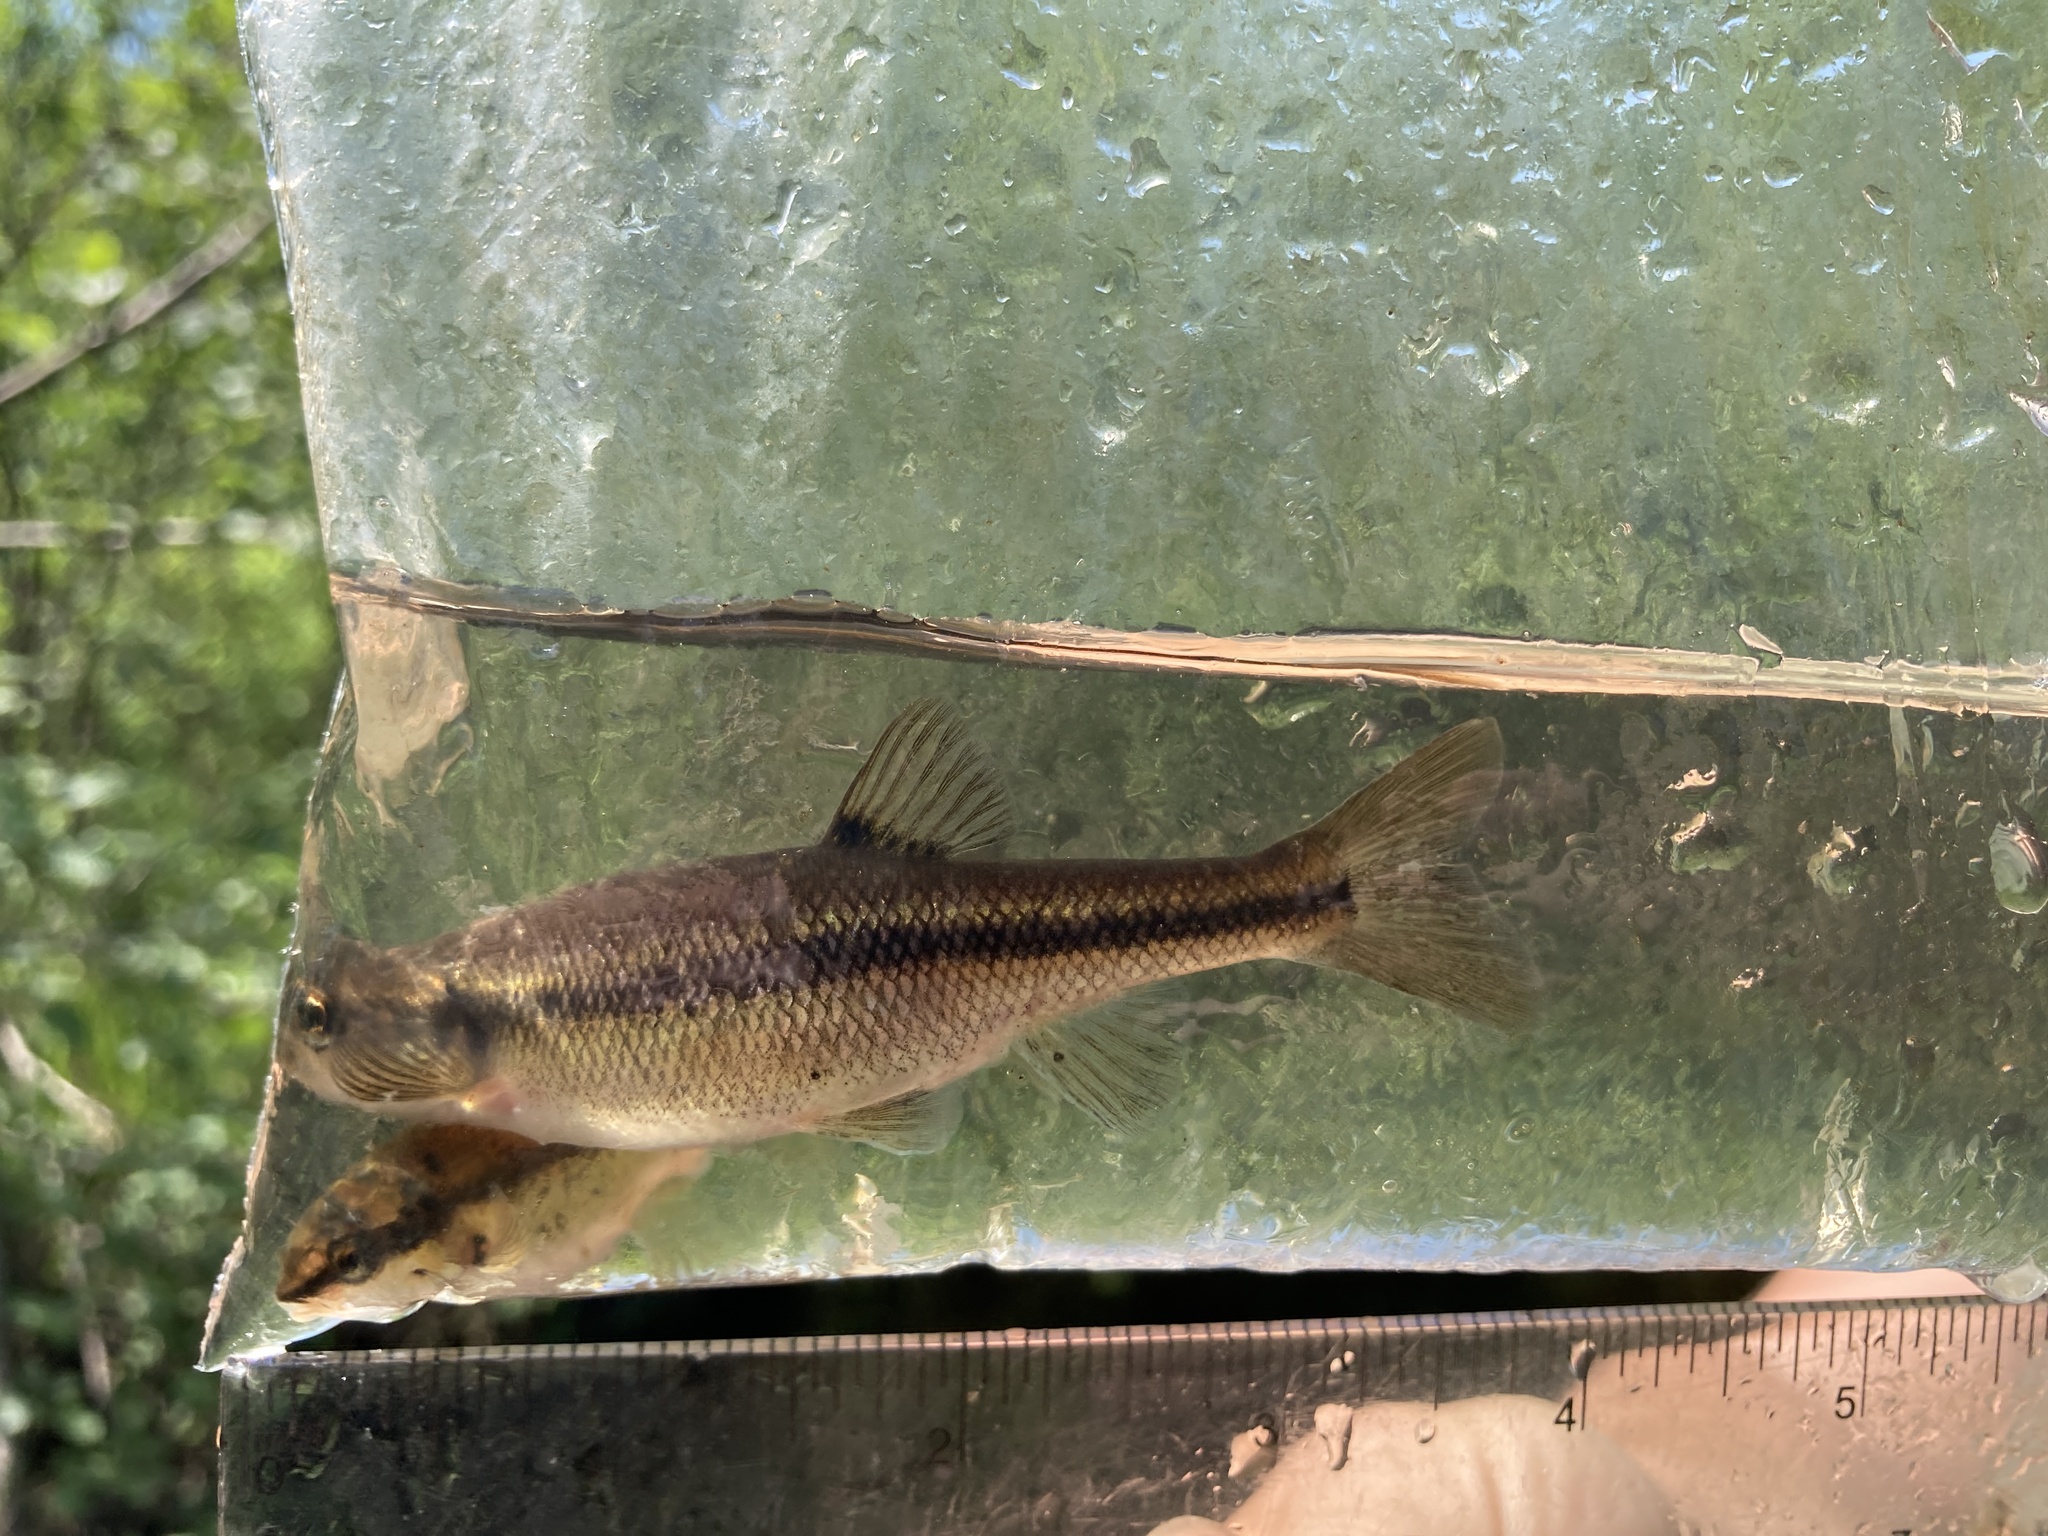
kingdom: Animalia
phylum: Chordata
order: Cypriniformes
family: Cyprinidae
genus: Semotilus
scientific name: Semotilus atromaculatus
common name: Creek chub
